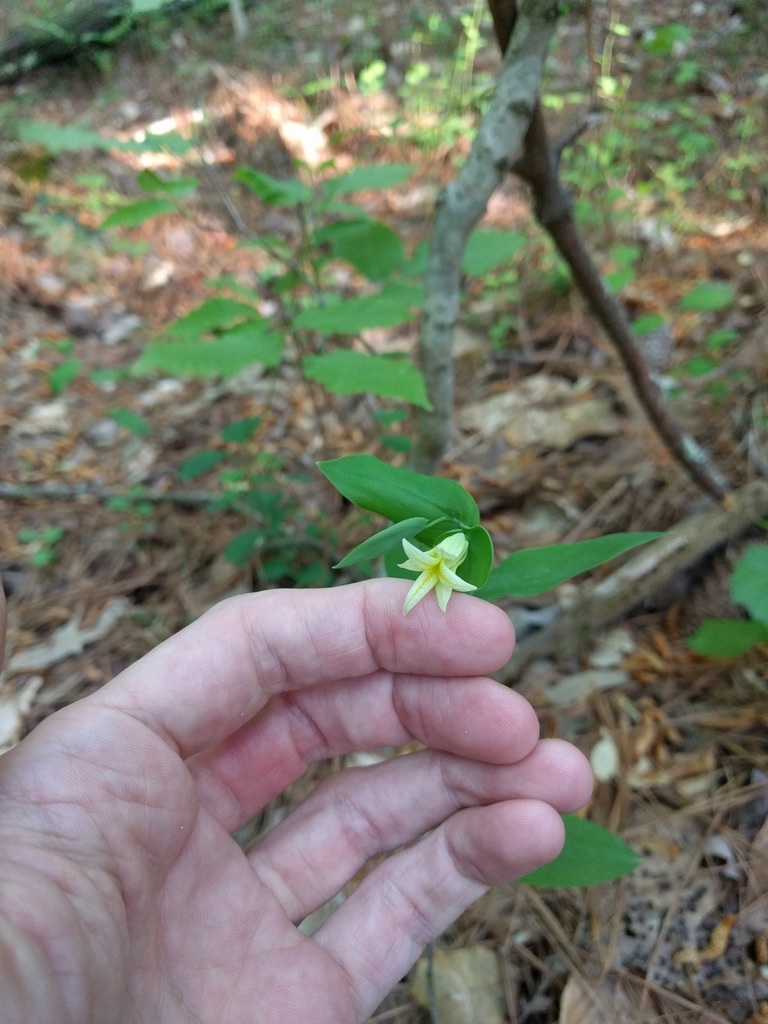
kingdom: Plantae
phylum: Tracheophyta
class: Liliopsida
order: Liliales
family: Colchicaceae
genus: Uvularia
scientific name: Uvularia perfoliata
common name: Perfoliate bellwort
